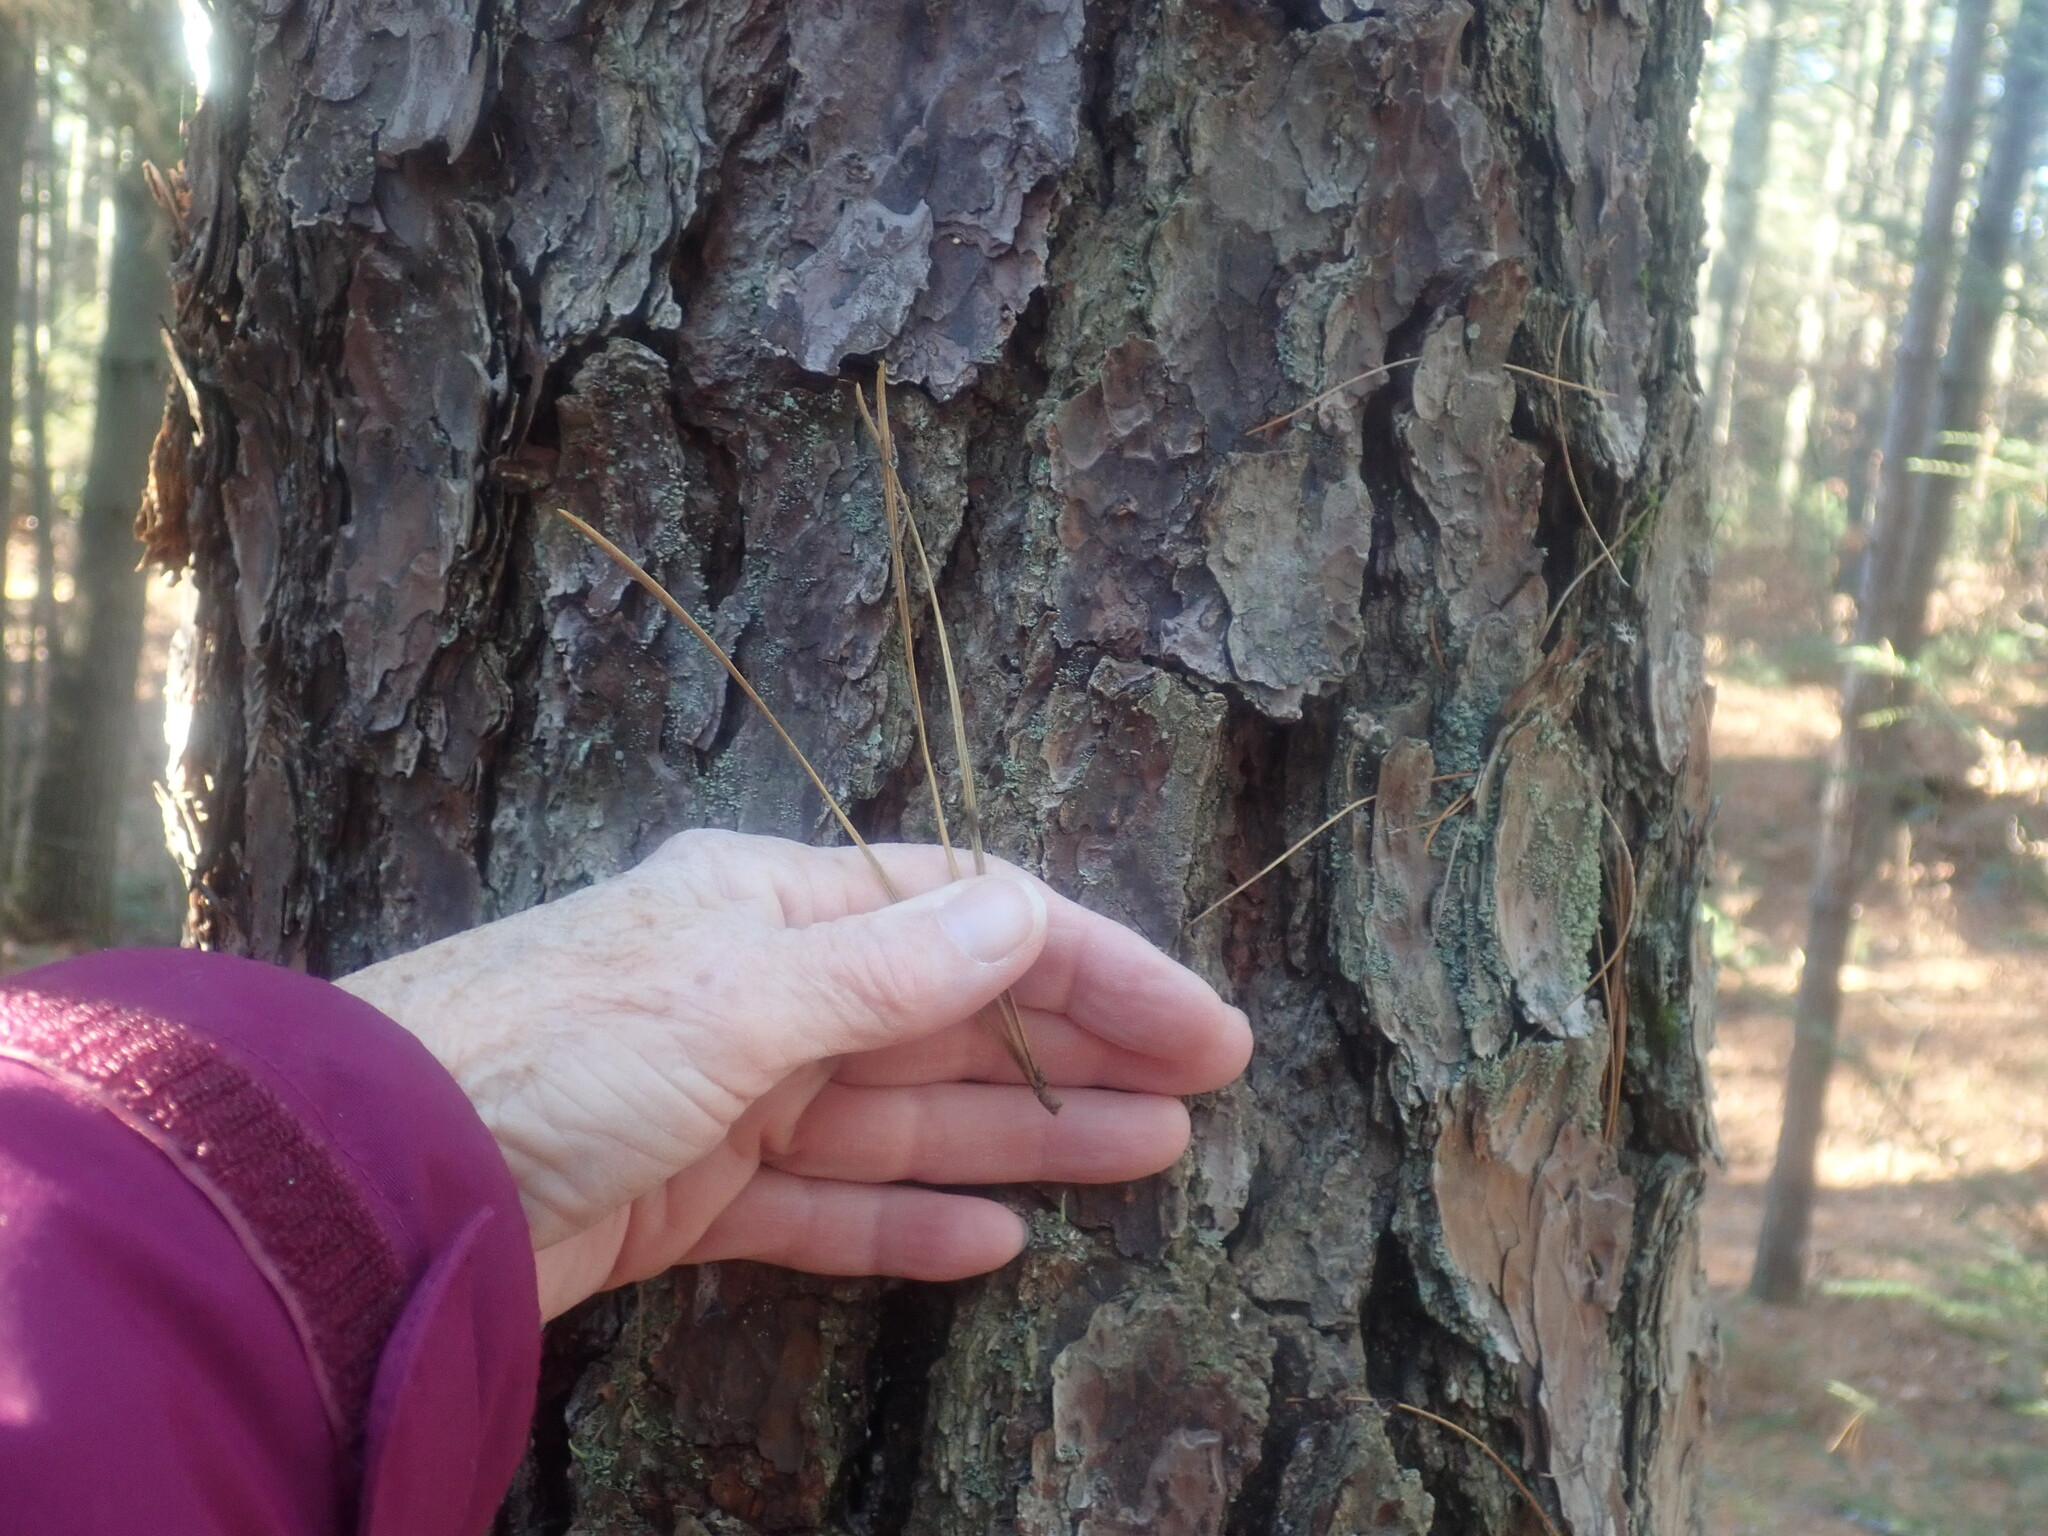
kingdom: Plantae
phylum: Tracheophyta
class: Pinopsida
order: Pinales
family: Pinaceae
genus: Pinus
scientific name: Pinus rigida
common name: Pitch pine
